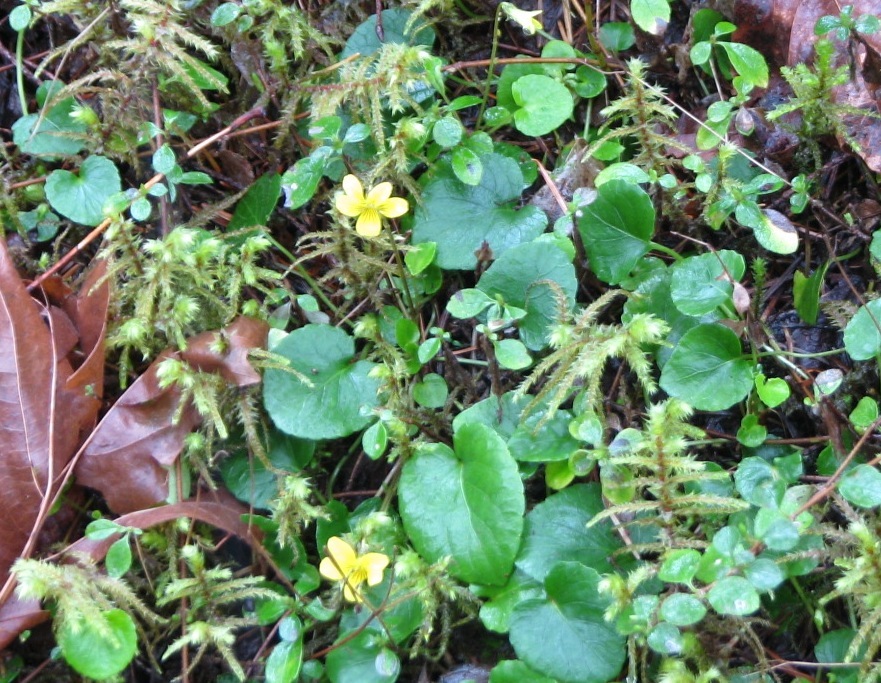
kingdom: Plantae
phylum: Tracheophyta
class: Magnoliopsida
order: Malpighiales
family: Violaceae
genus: Viola
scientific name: Viola sempervirens
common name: Evergreen violet
